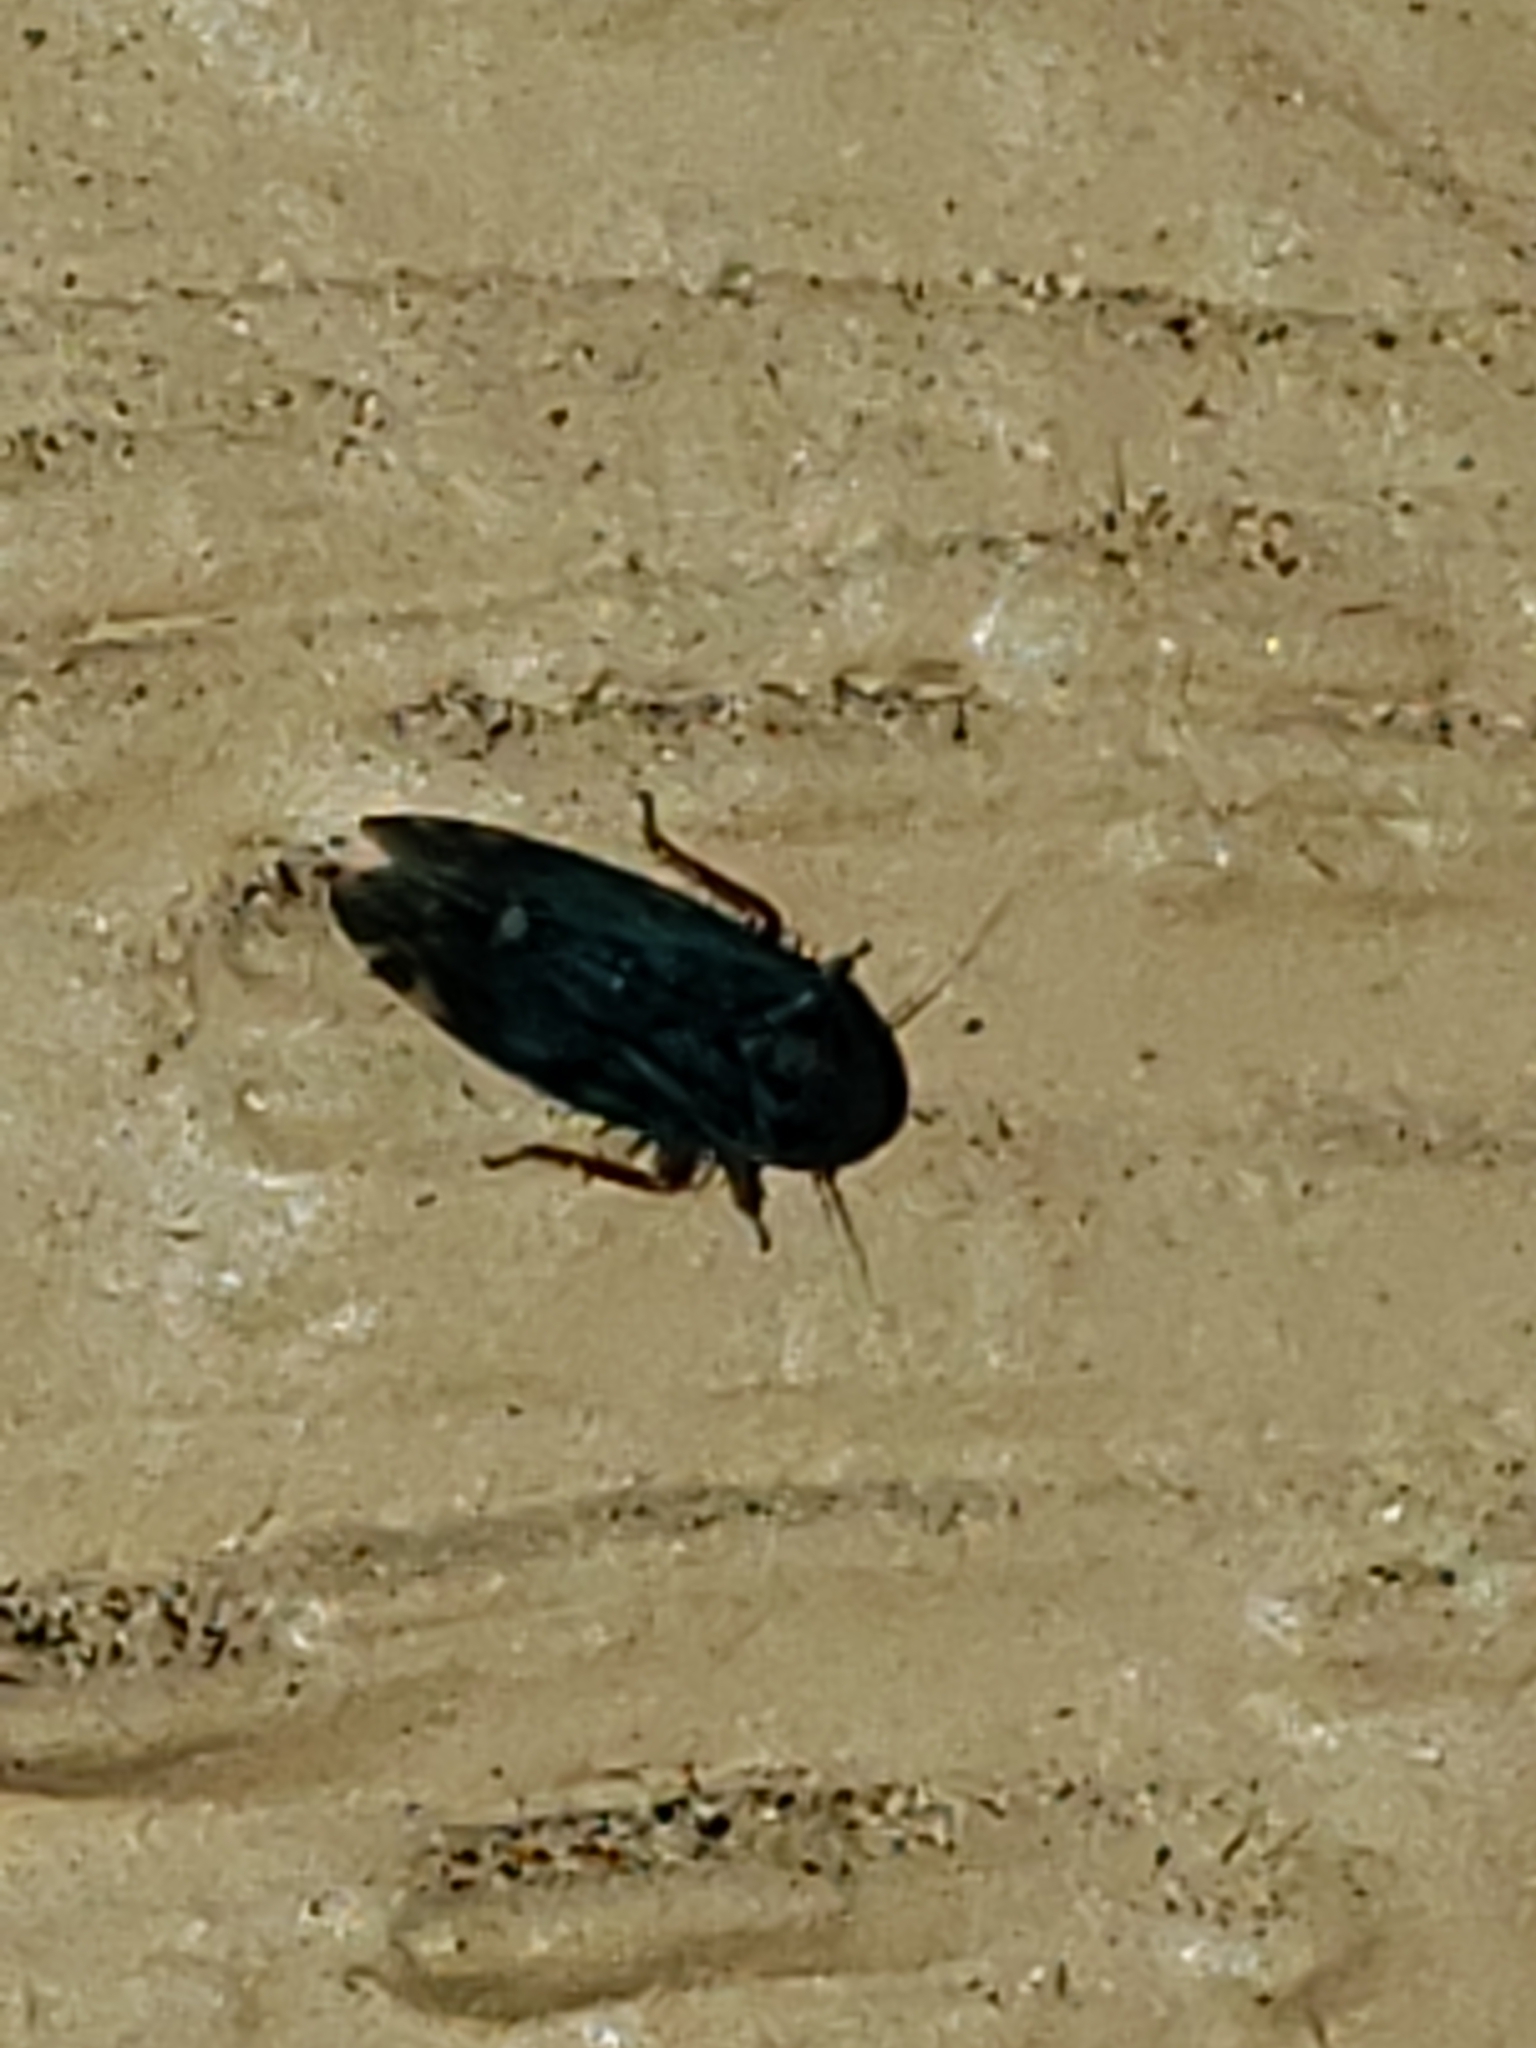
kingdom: Animalia
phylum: Arthropoda
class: Insecta
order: Hemiptera
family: Cicadellidae
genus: Xestocephalus
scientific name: Xestocephalus brunneus
